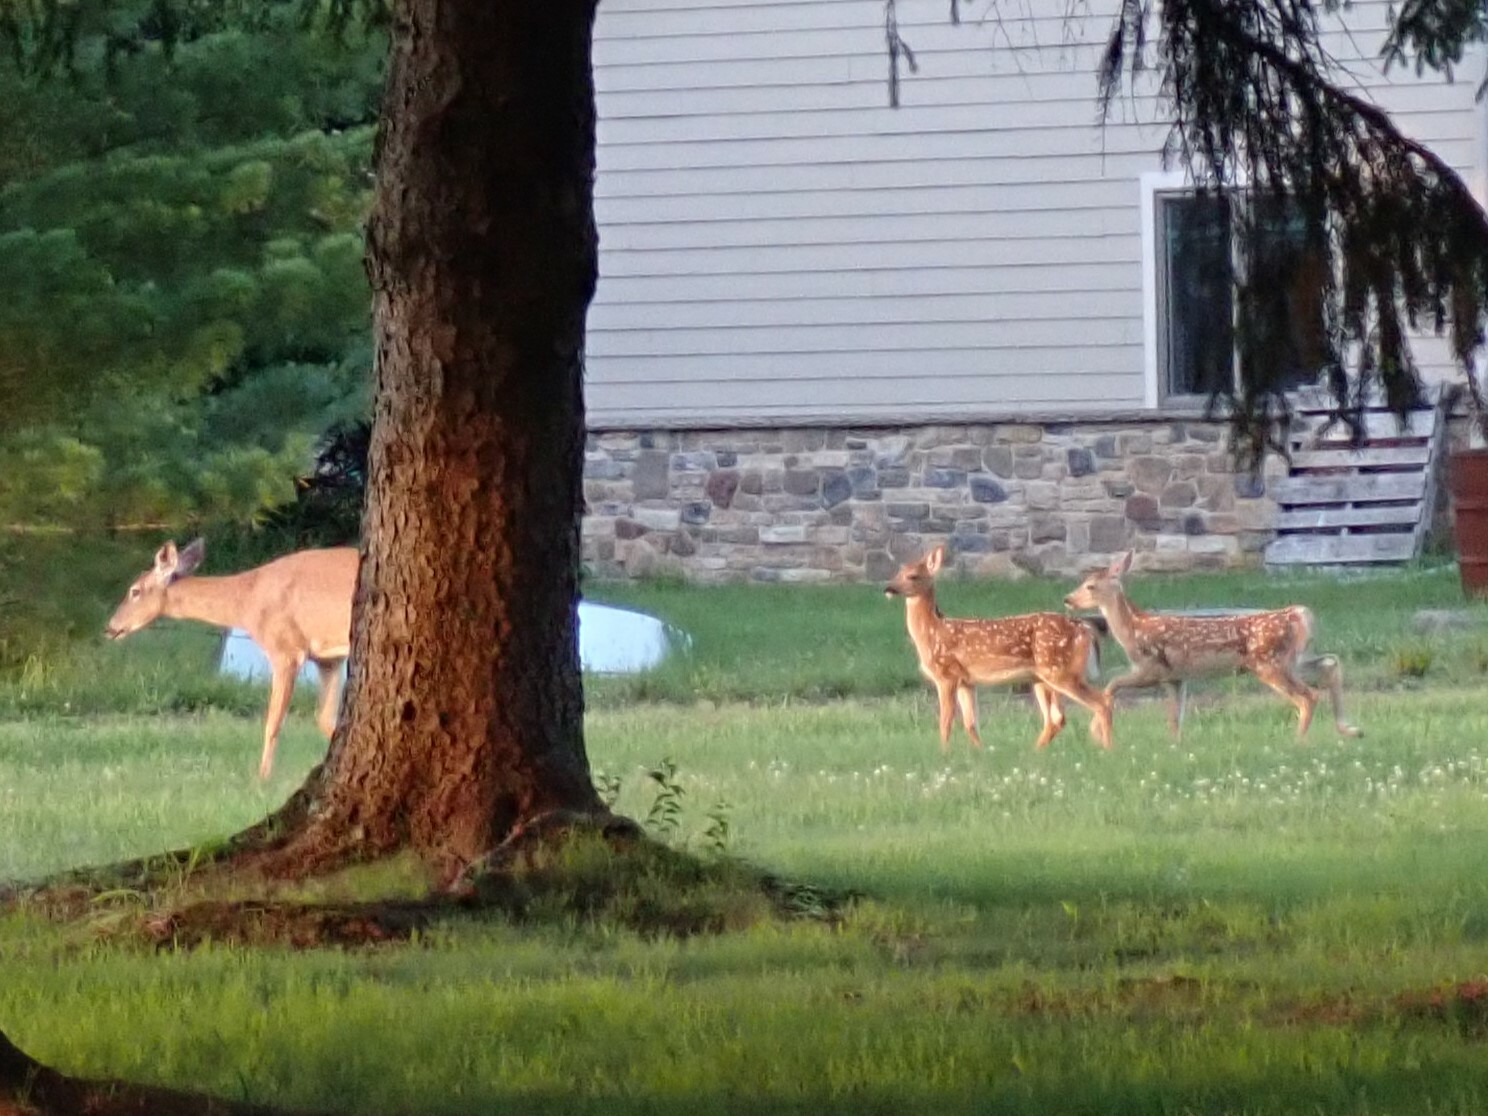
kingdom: Animalia
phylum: Chordata
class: Mammalia
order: Artiodactyla
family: Cervidae
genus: Odocoileus
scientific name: Odocoileus virginianus
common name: White-tailed deer
